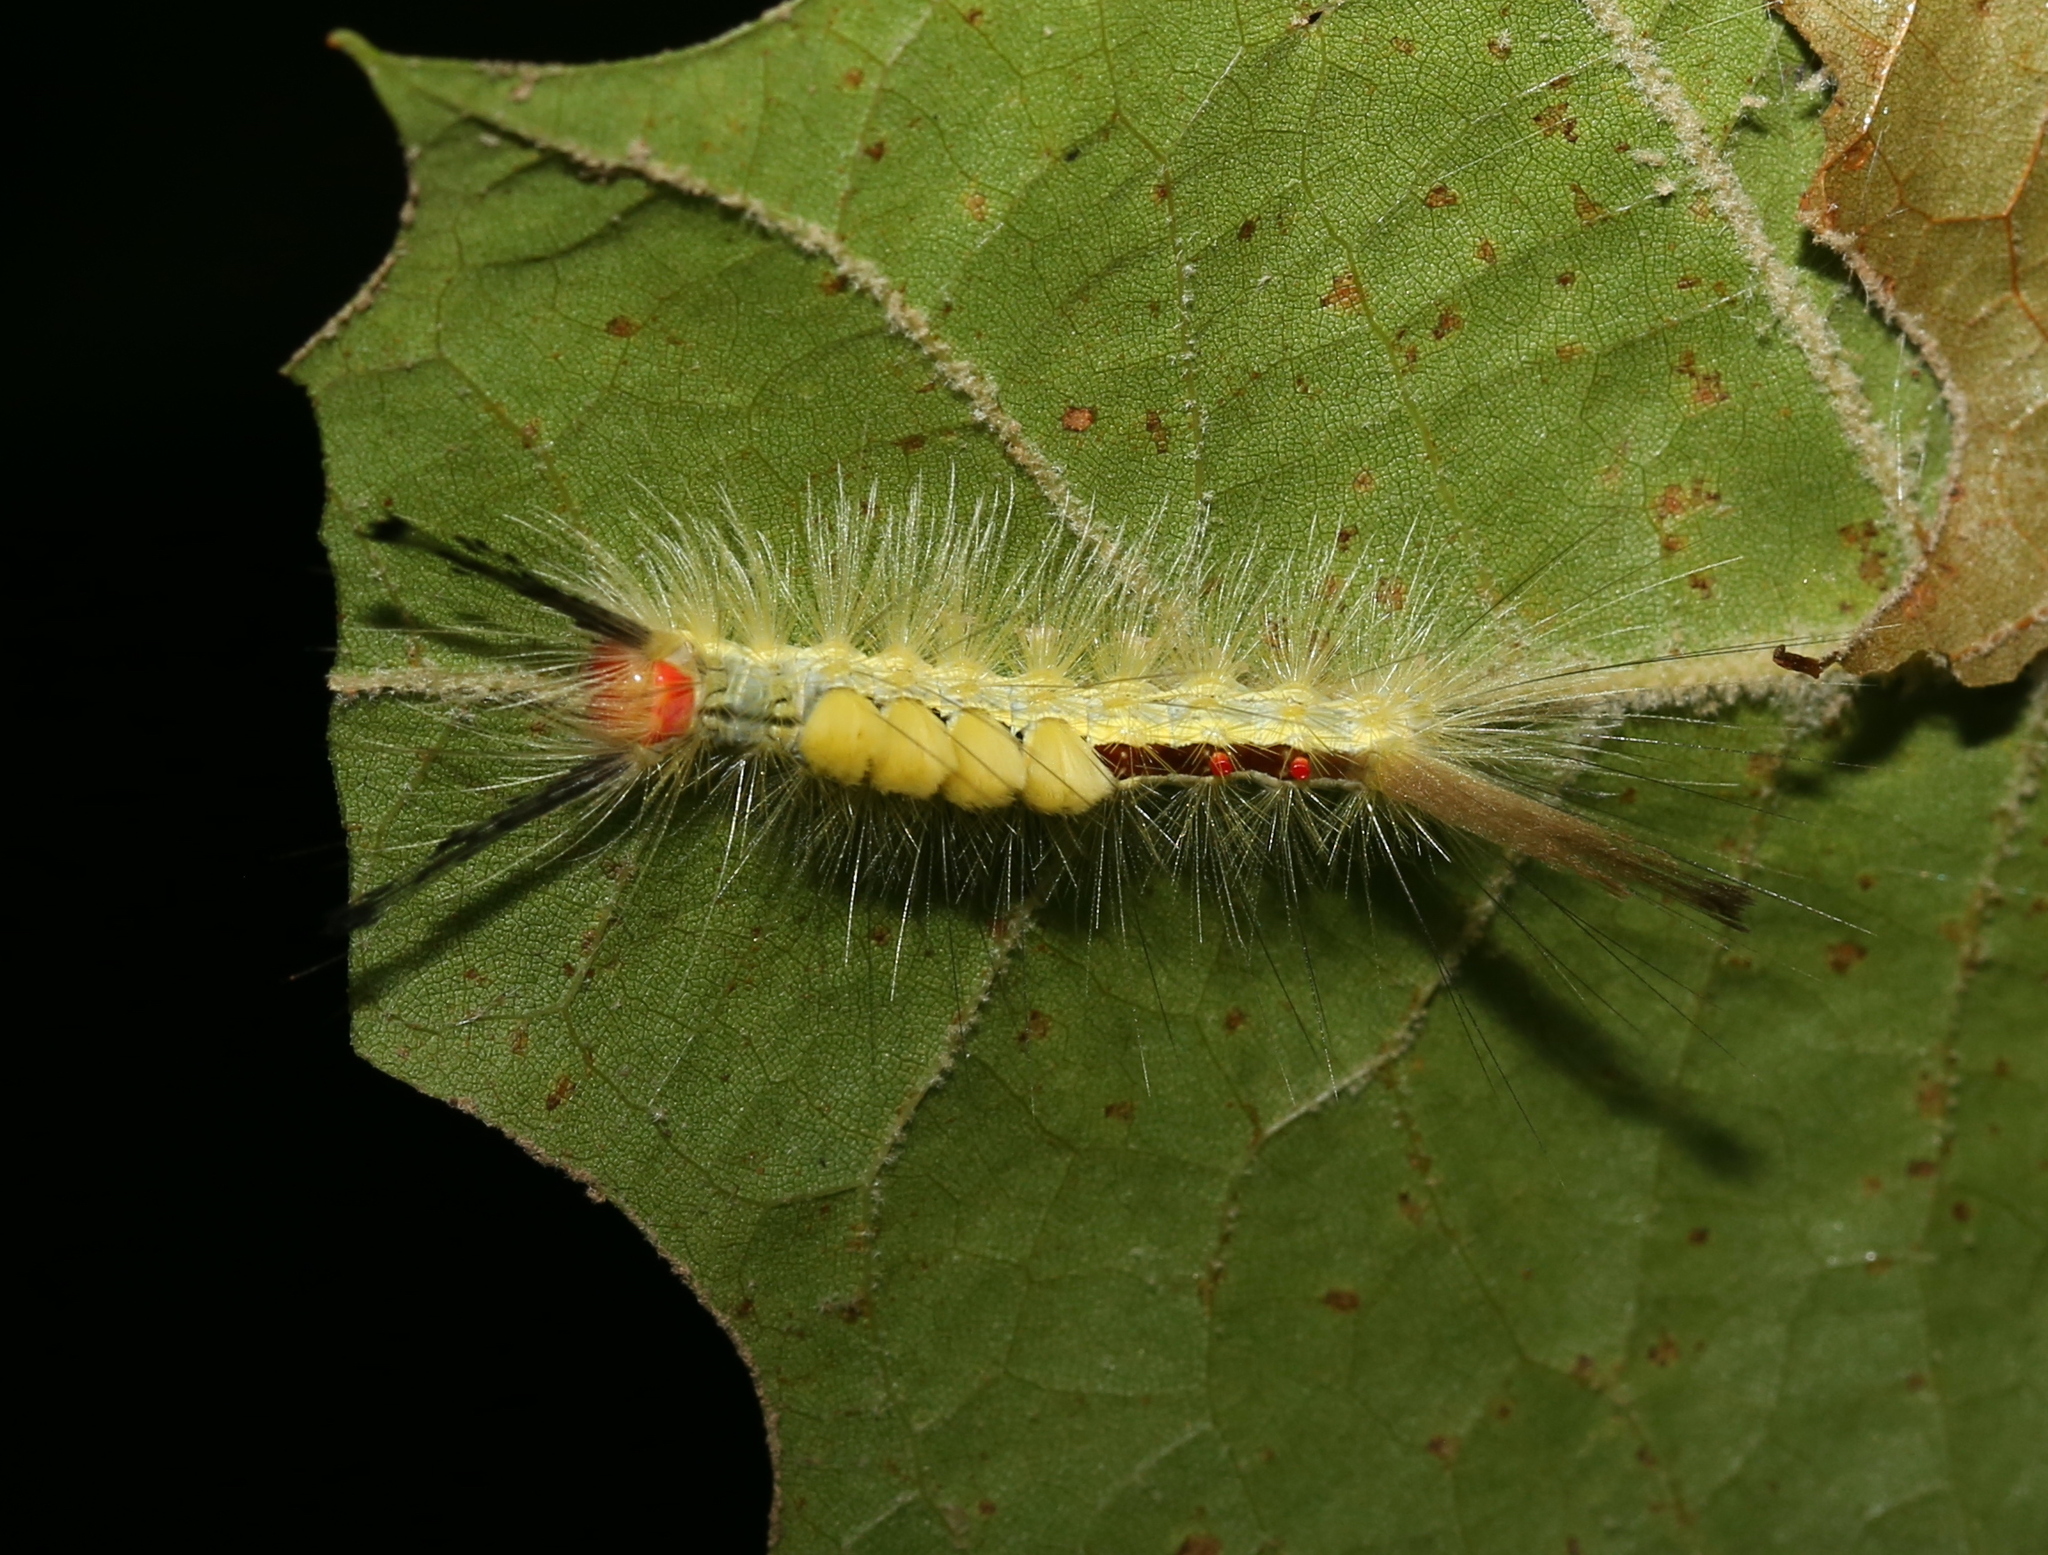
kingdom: Animalia
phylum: Arthropoda
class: Insecta
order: Lepidoptera
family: Erebidae
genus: Orgyia
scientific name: Orgyia leucostigma
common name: White-marked tussock moth
